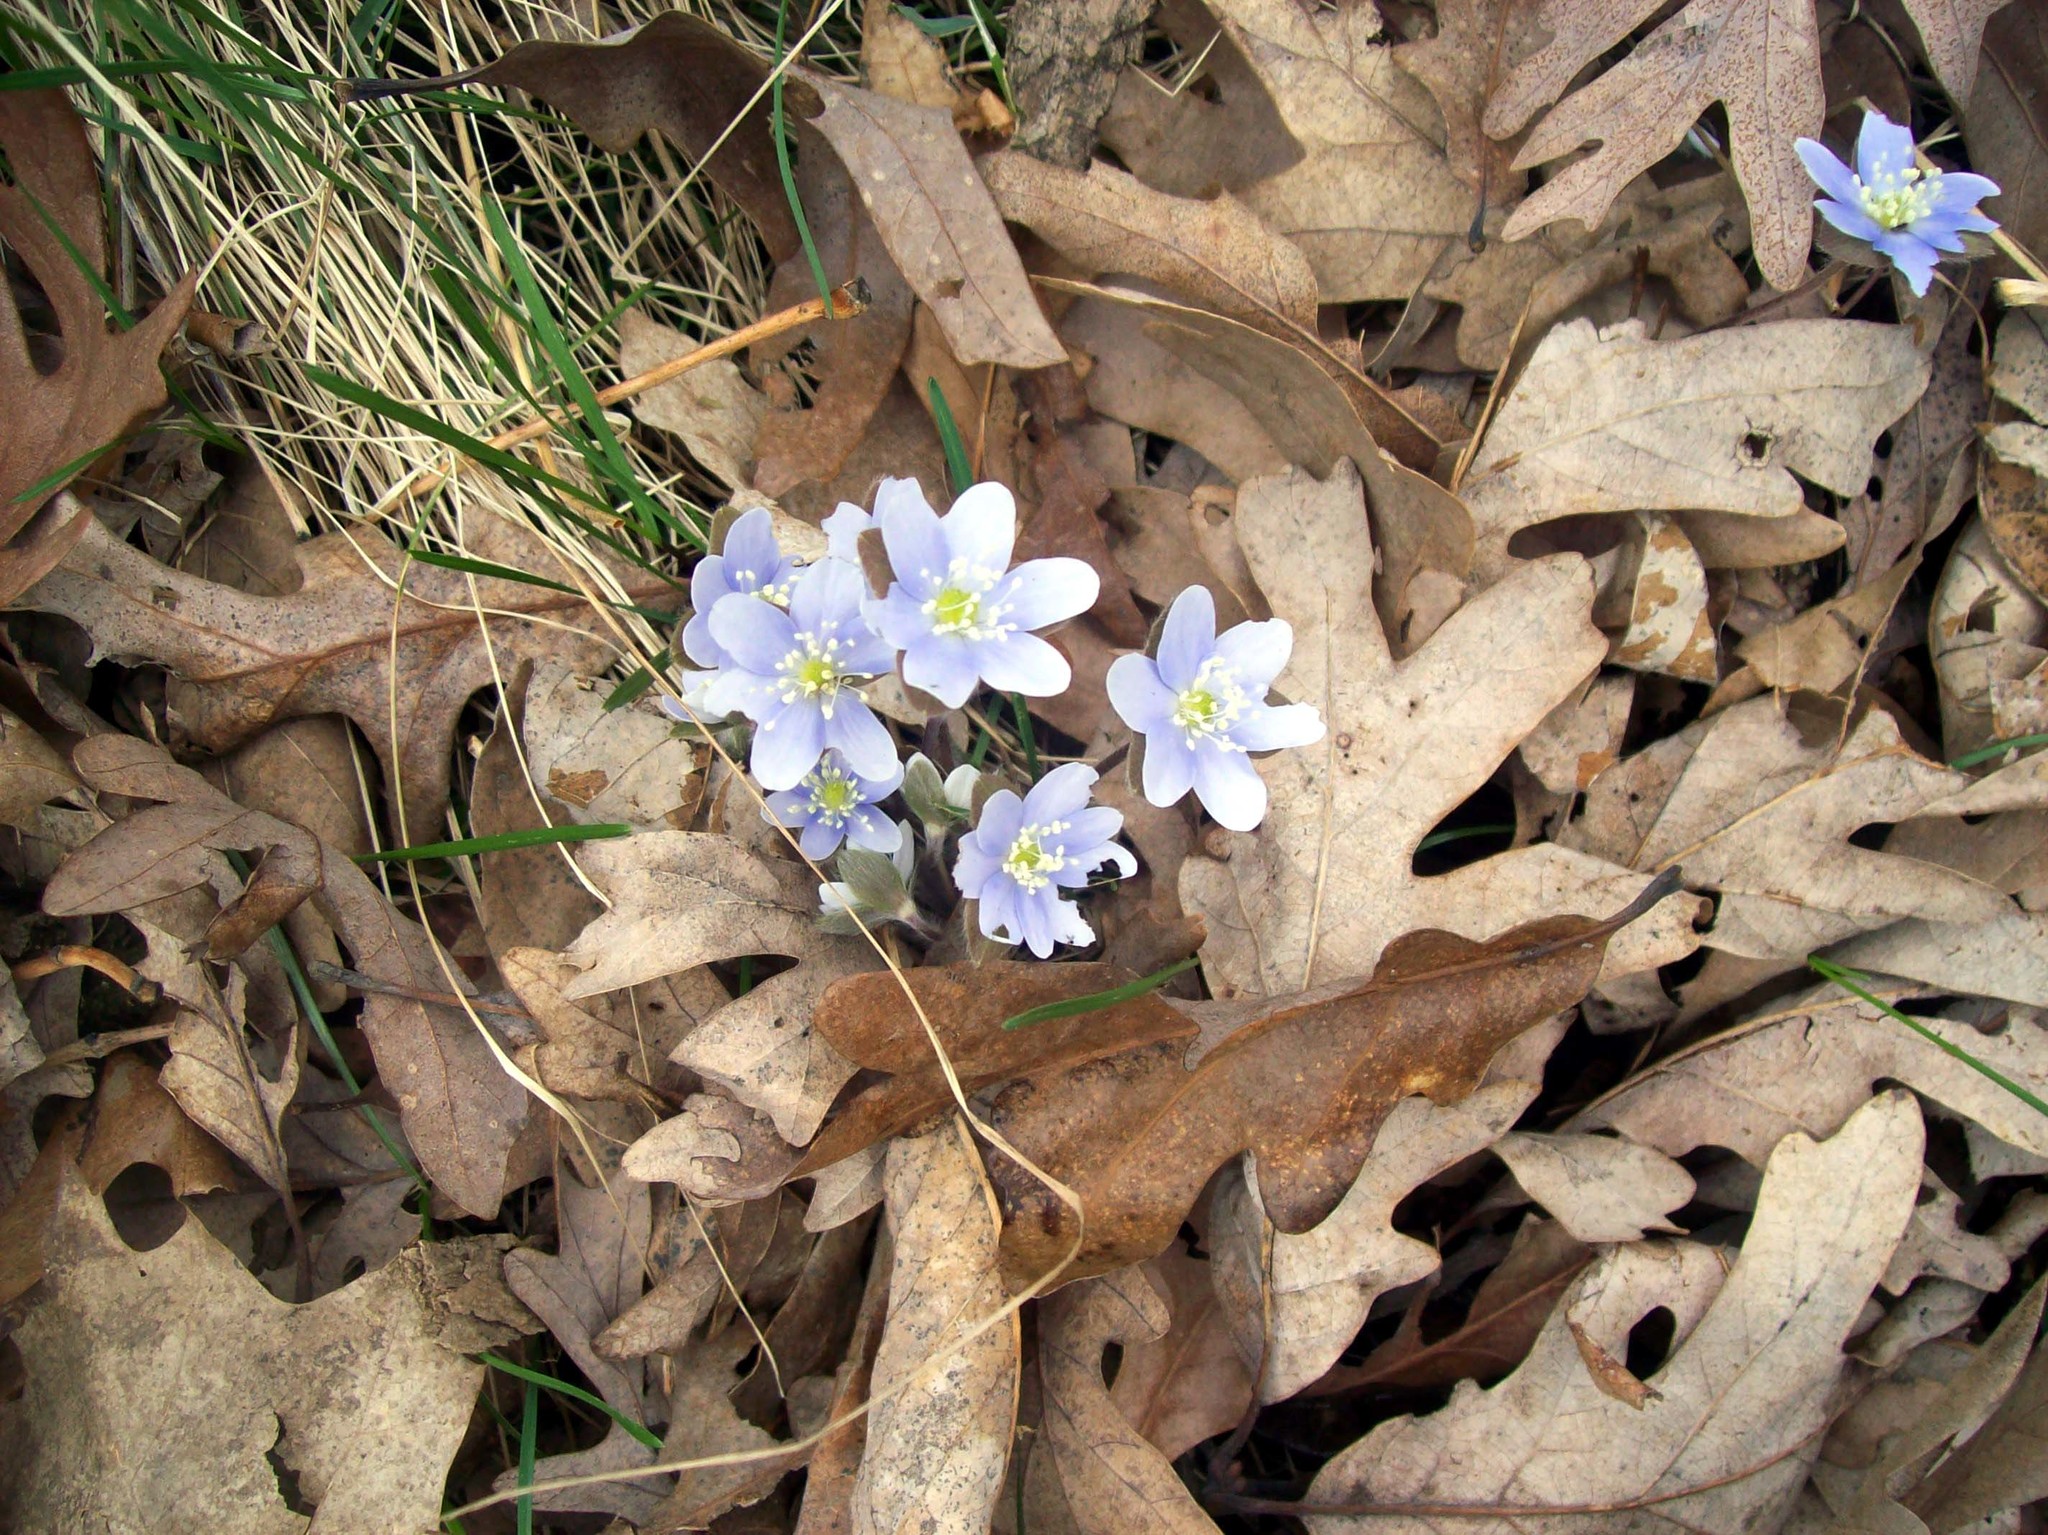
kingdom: Plantae
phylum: Tracheophyta
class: Magnoliopsida
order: Ranunculales
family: Ranunculaceae
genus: Hepatica
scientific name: Hepatica americana
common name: American hepatica
